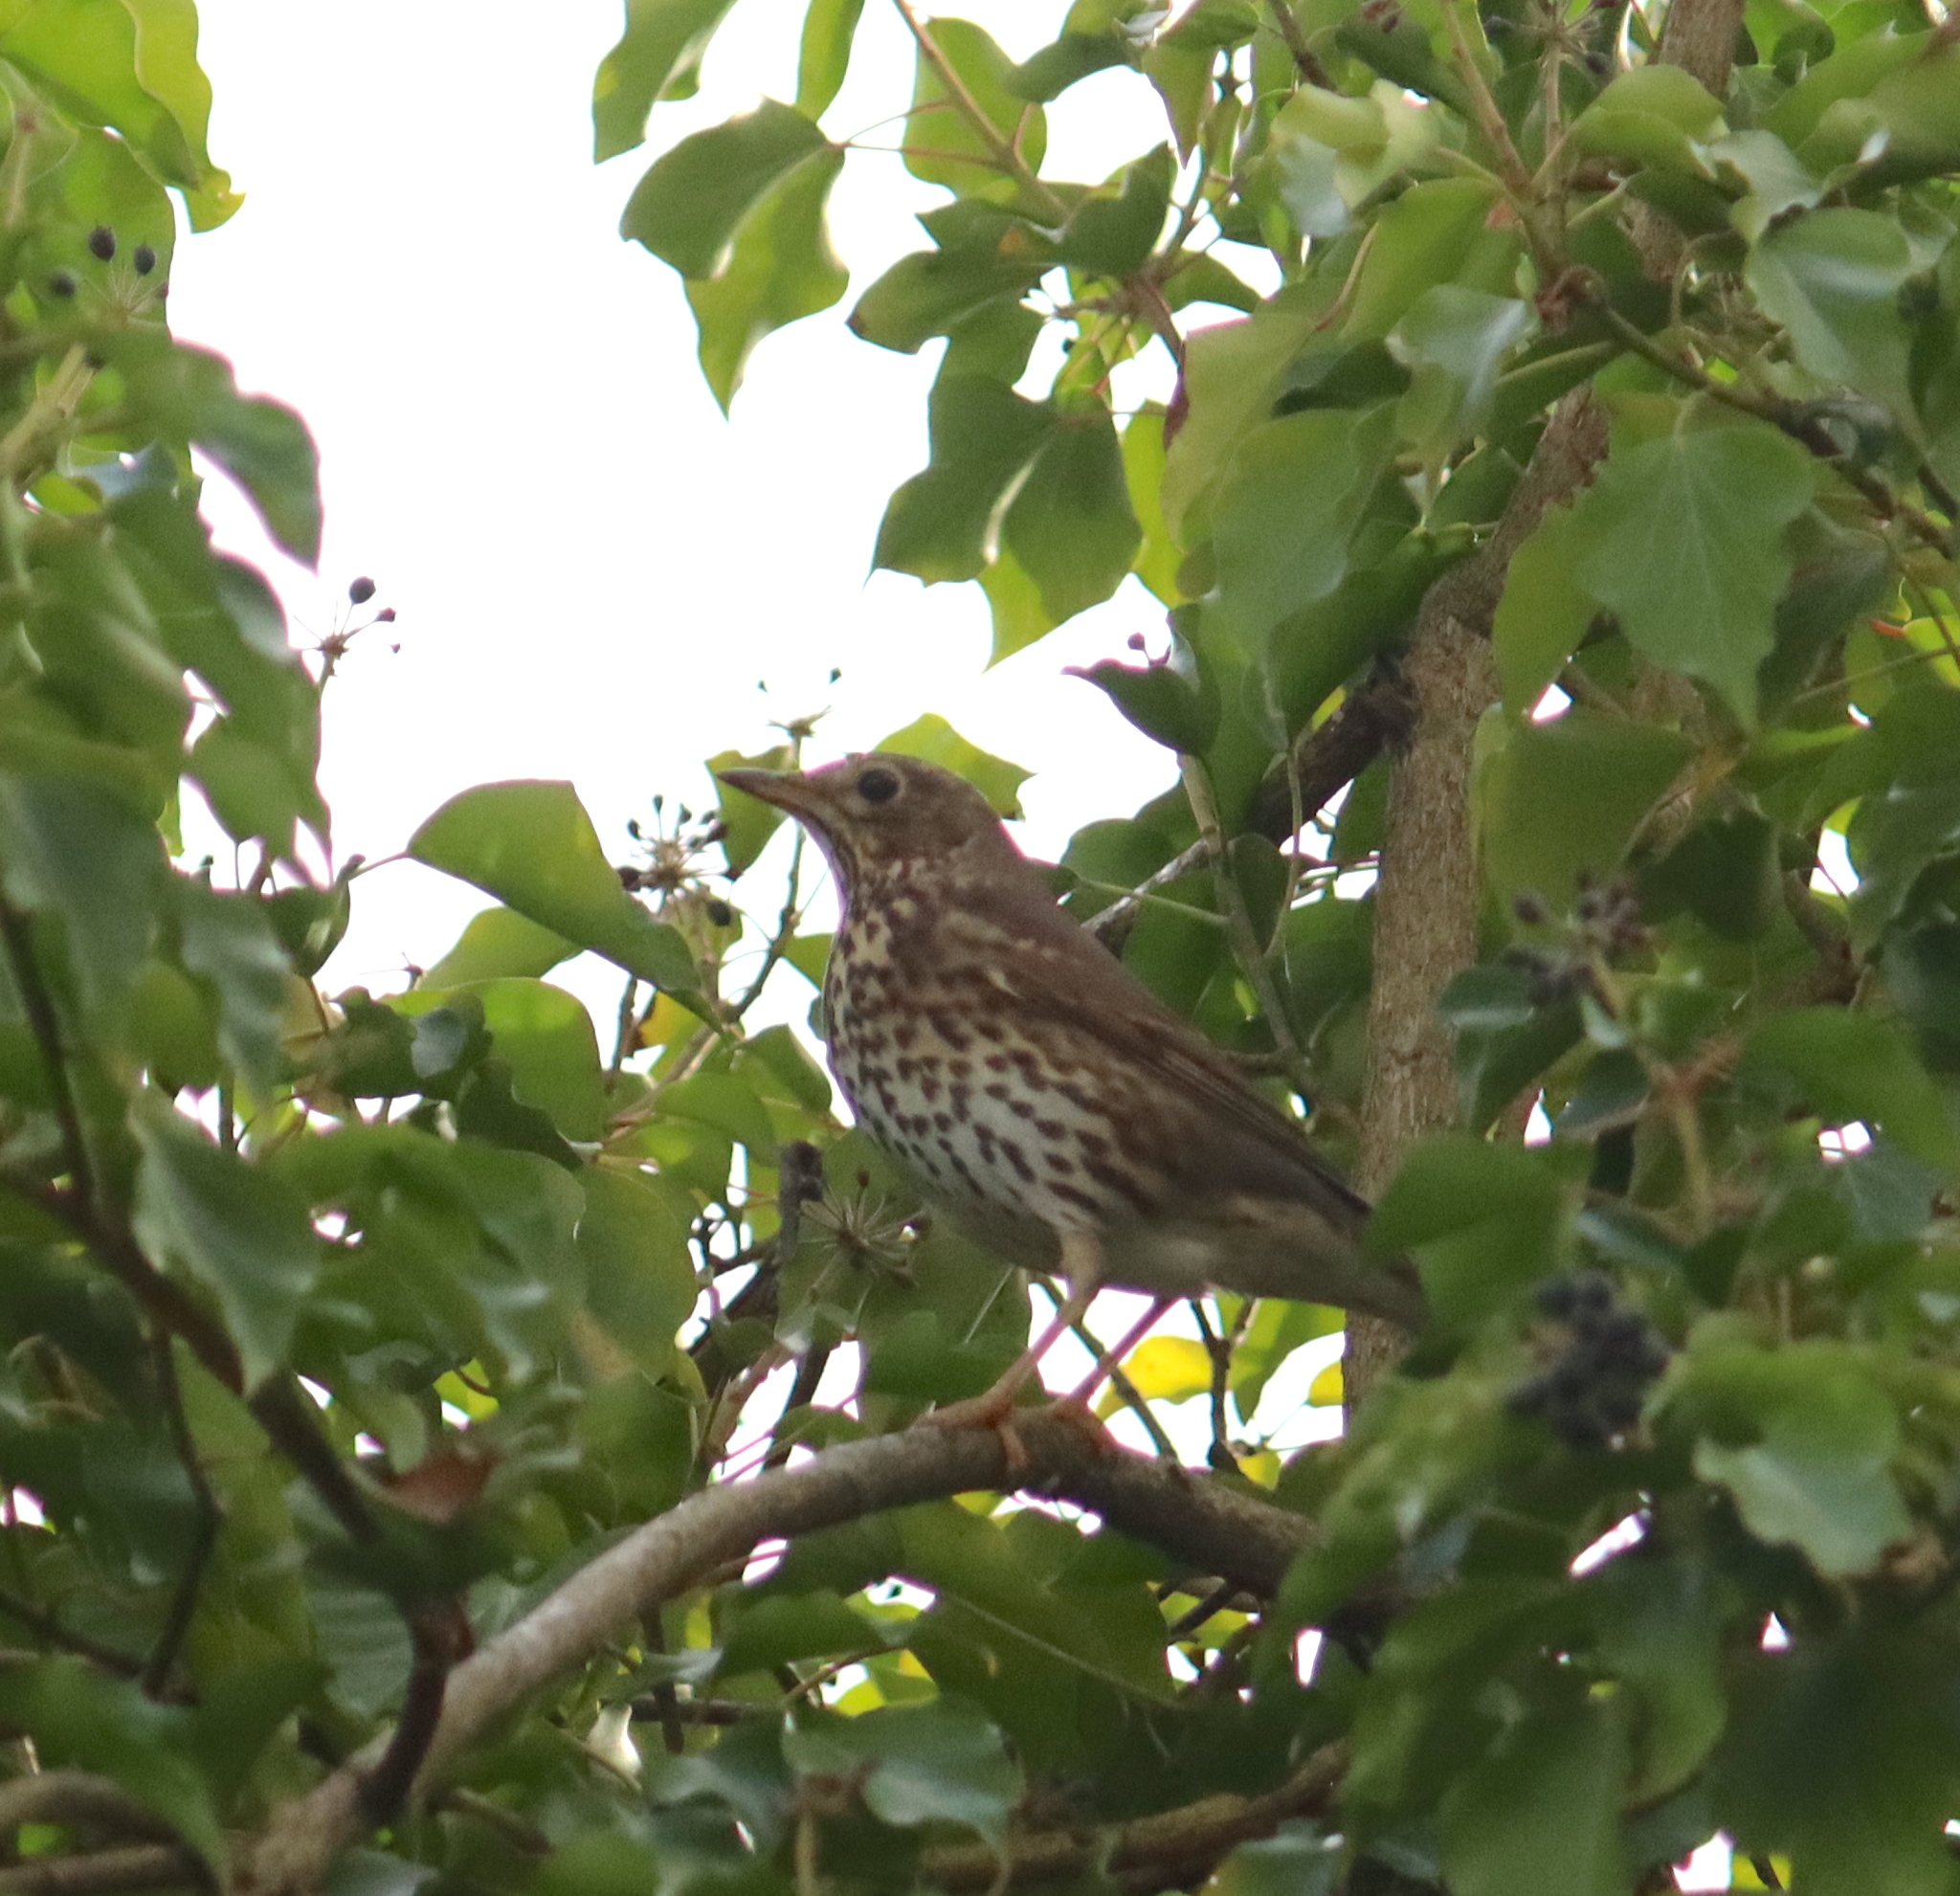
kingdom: Animalia
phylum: Chordata
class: Aves
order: Passeriformes
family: Turdidae
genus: Turdus
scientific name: Turdus philomelos
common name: Song thrush
